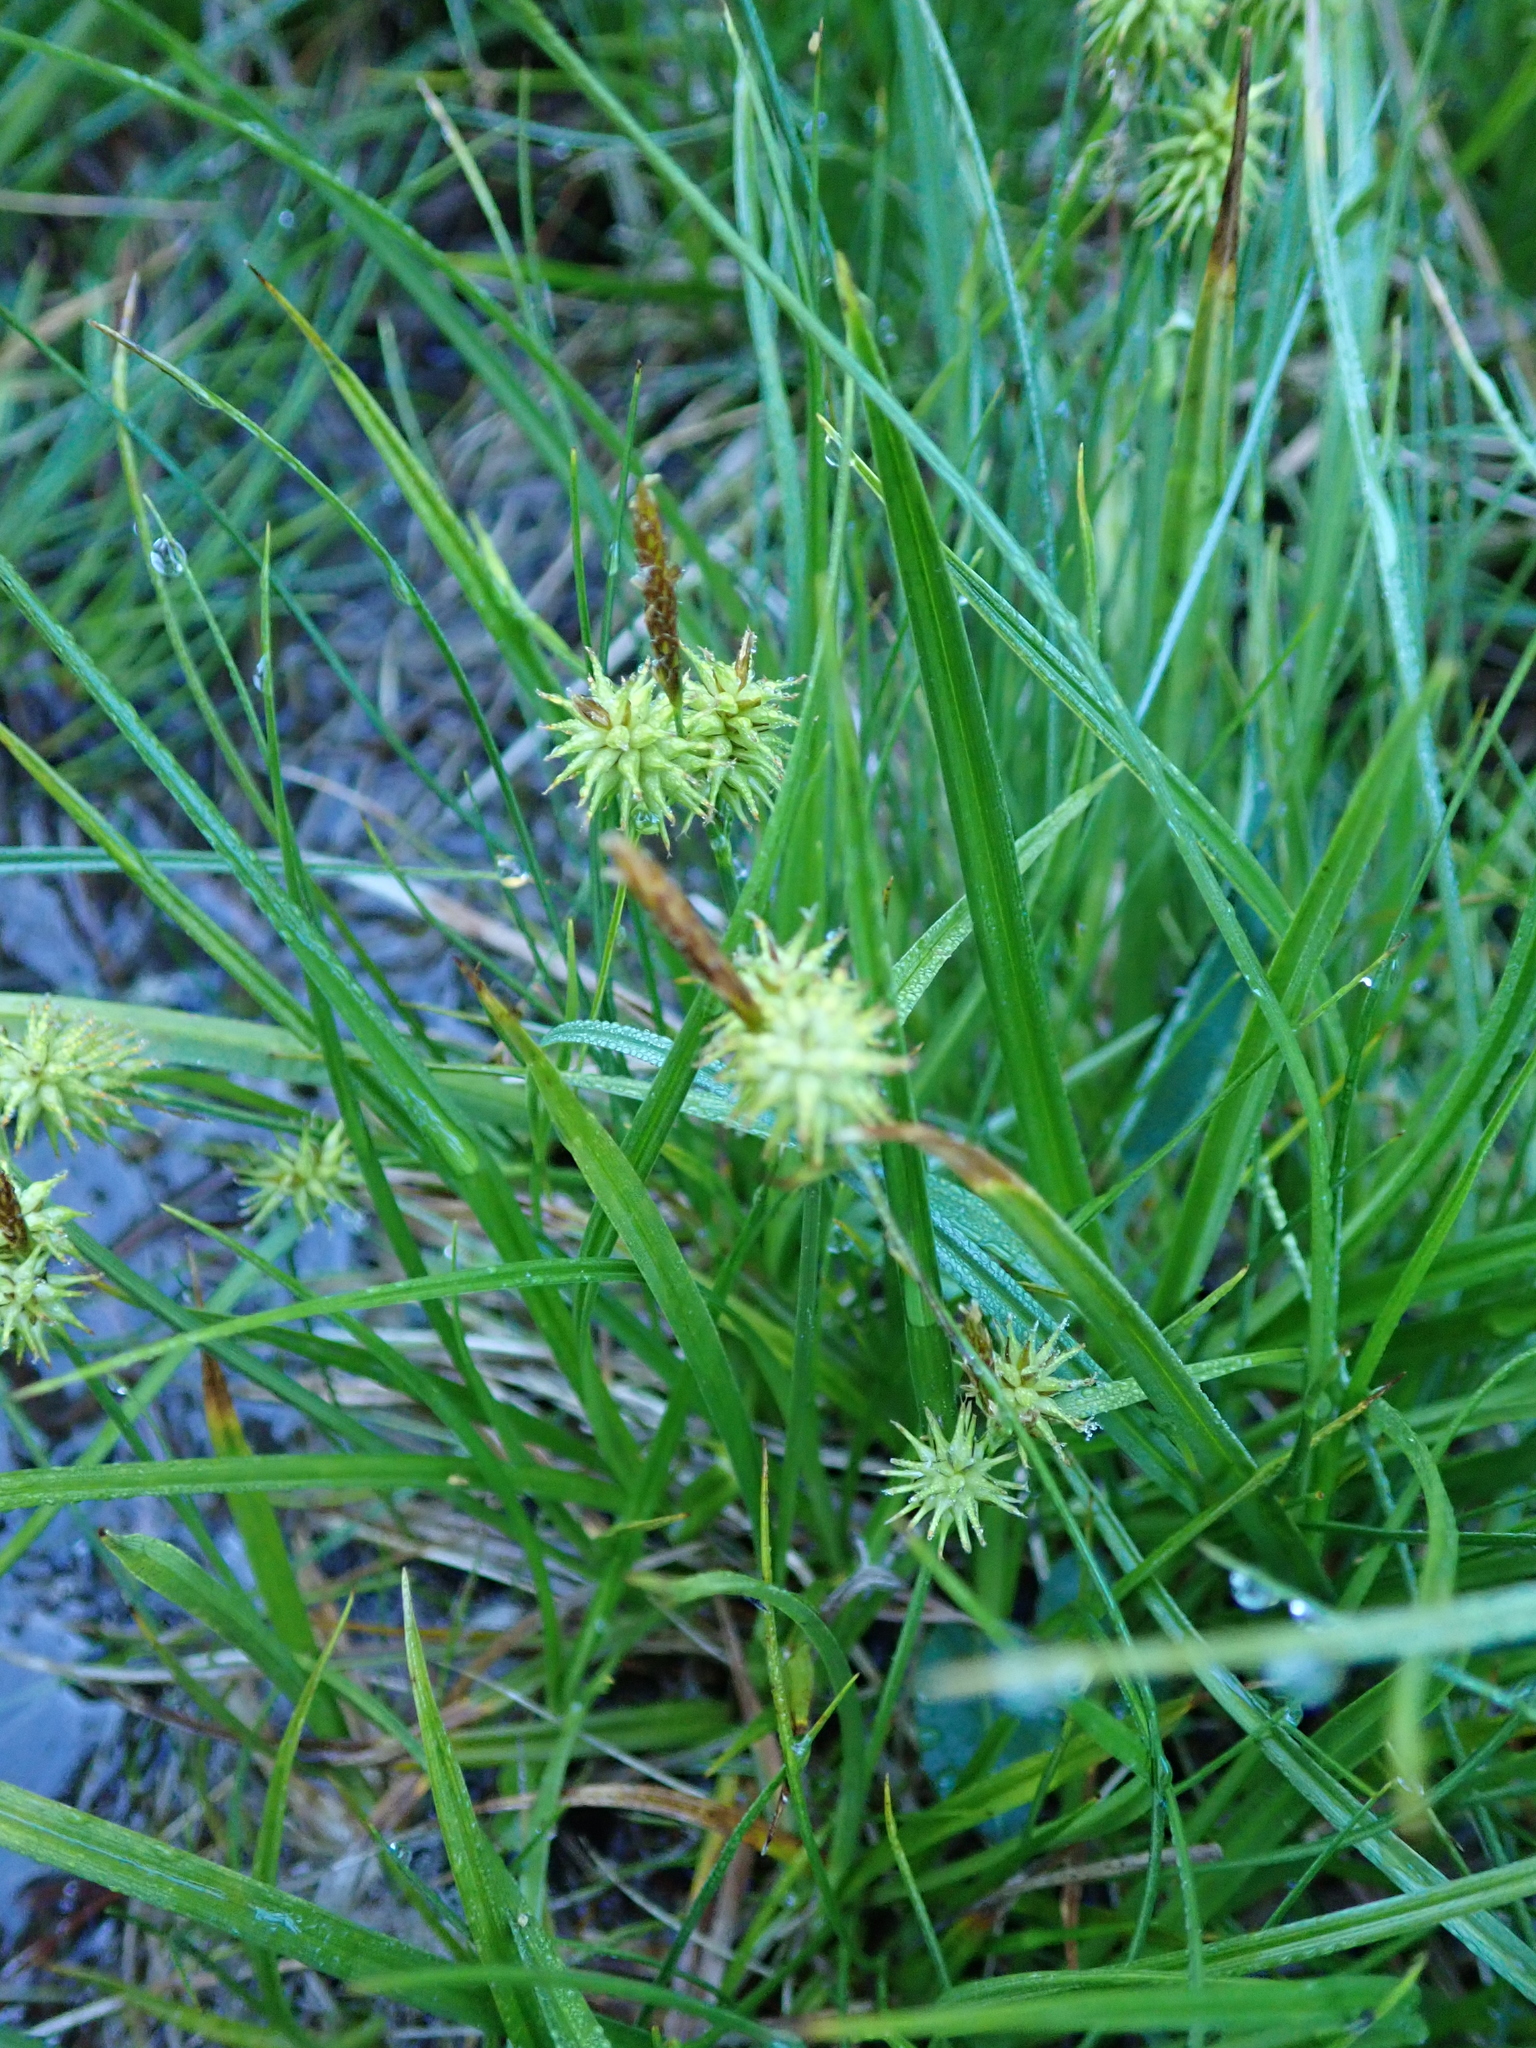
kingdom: Plantae
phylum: Tracheophyta
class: Liliopsida
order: Poales
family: Cyperaceae
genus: Carex
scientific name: Carex flava
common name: Large yellow-sedge
